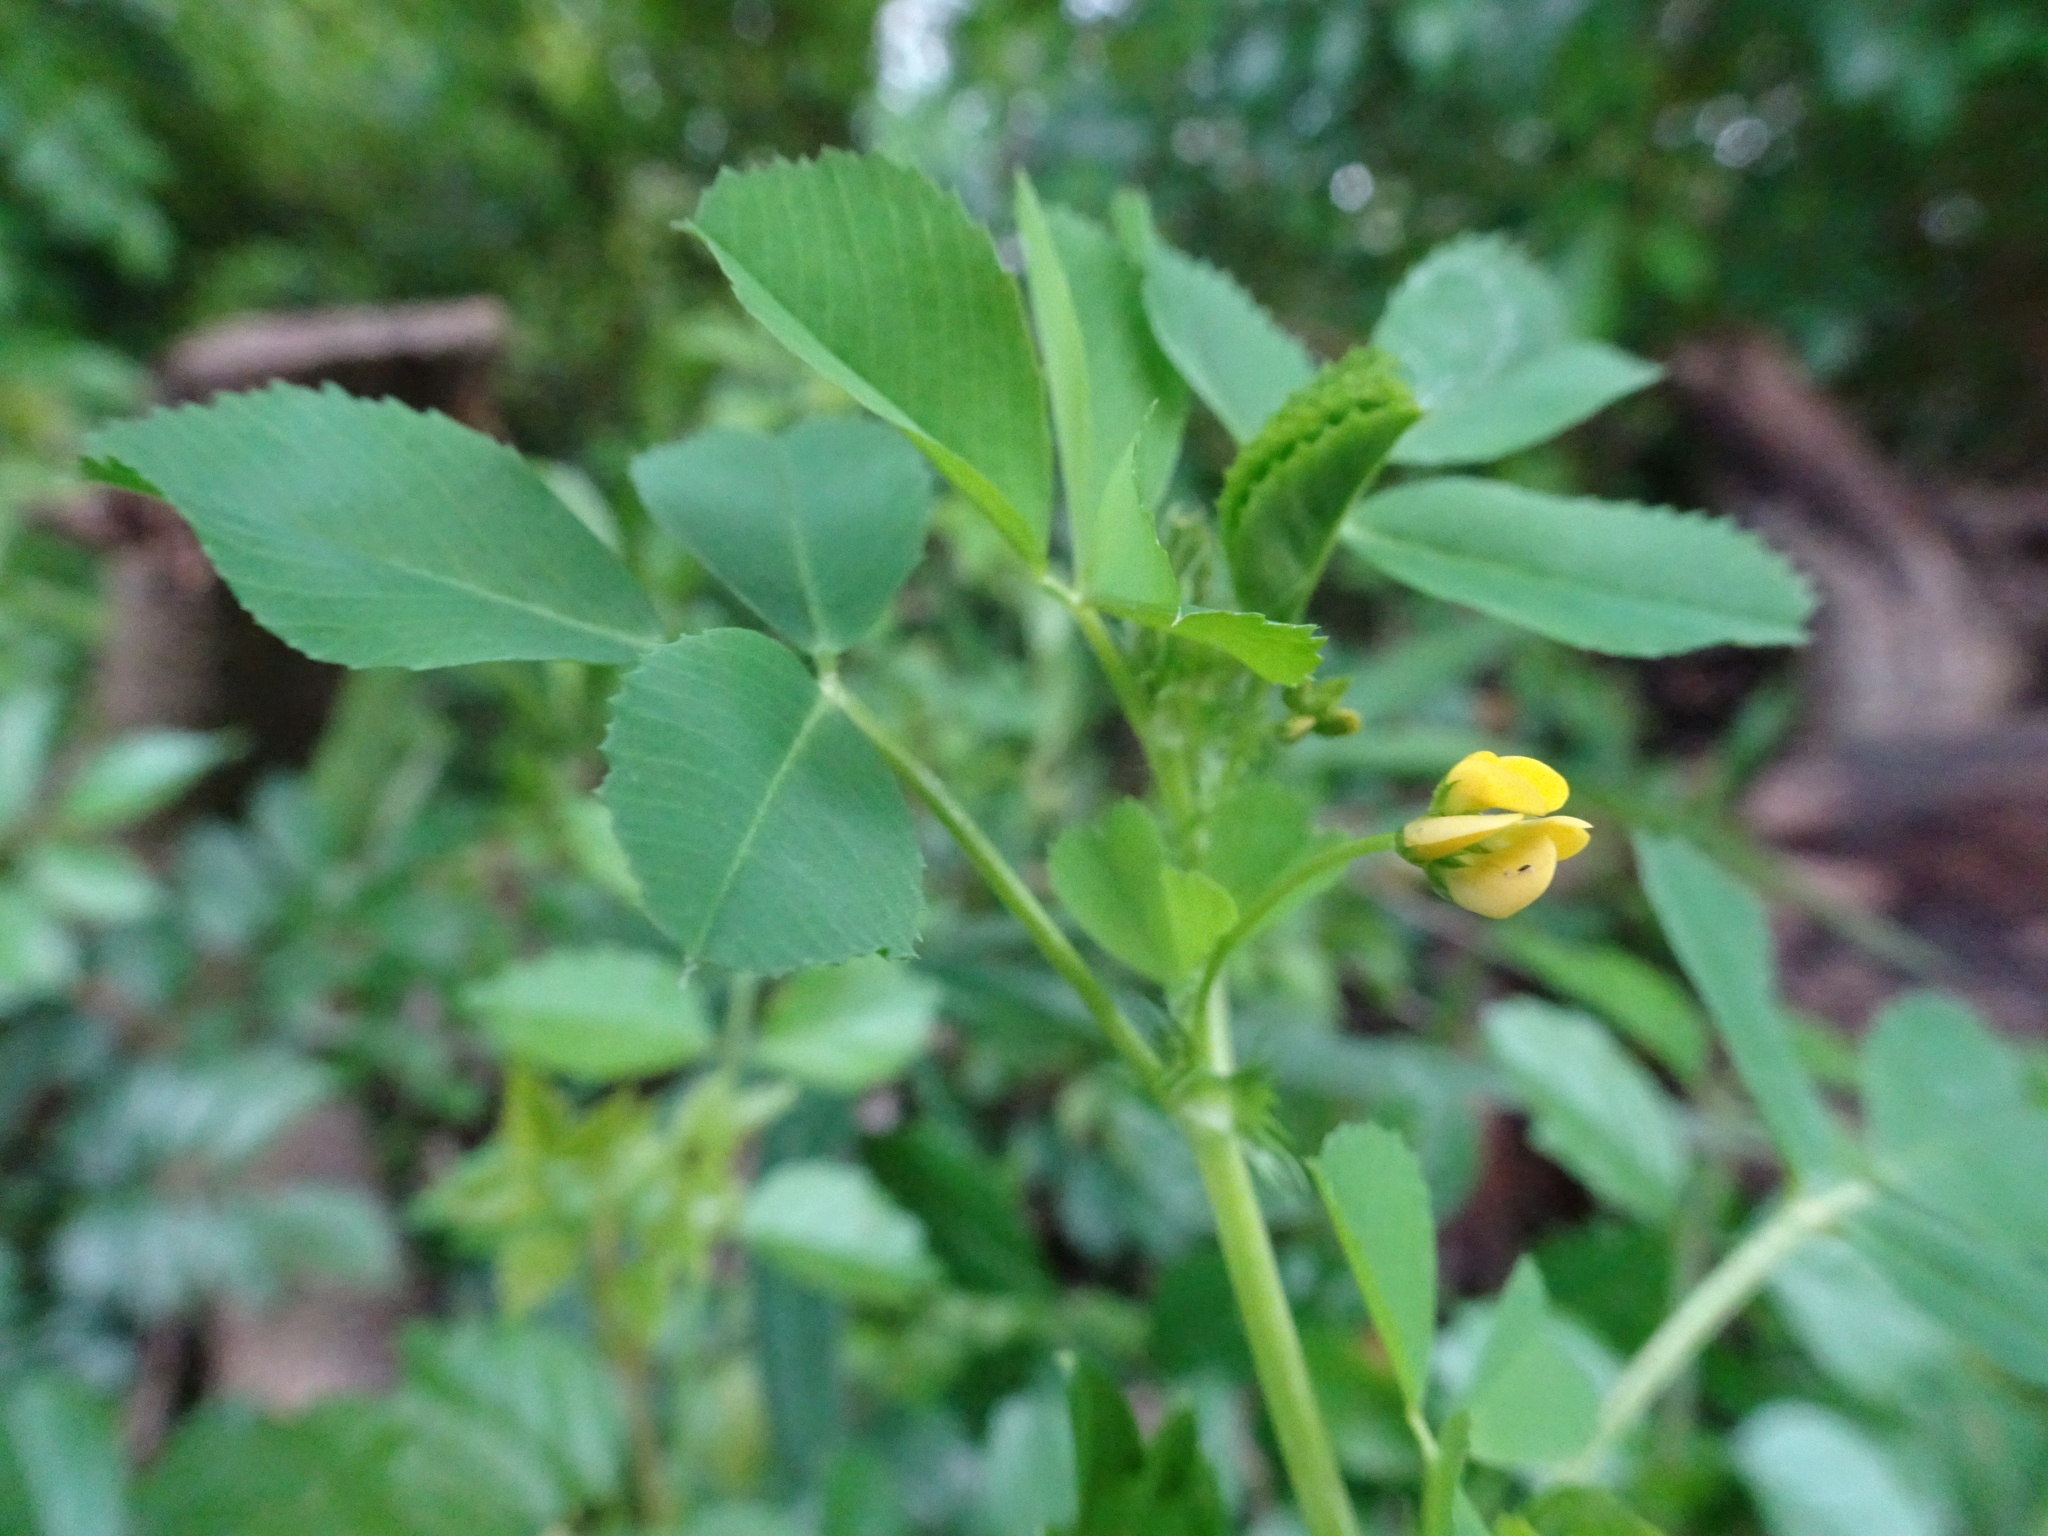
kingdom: Plantae
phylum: Tracheophyta
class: Magnoliopsida
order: Fabales
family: Fabaceae
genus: Medicago
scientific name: Medicago polymorpha
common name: Burclover
